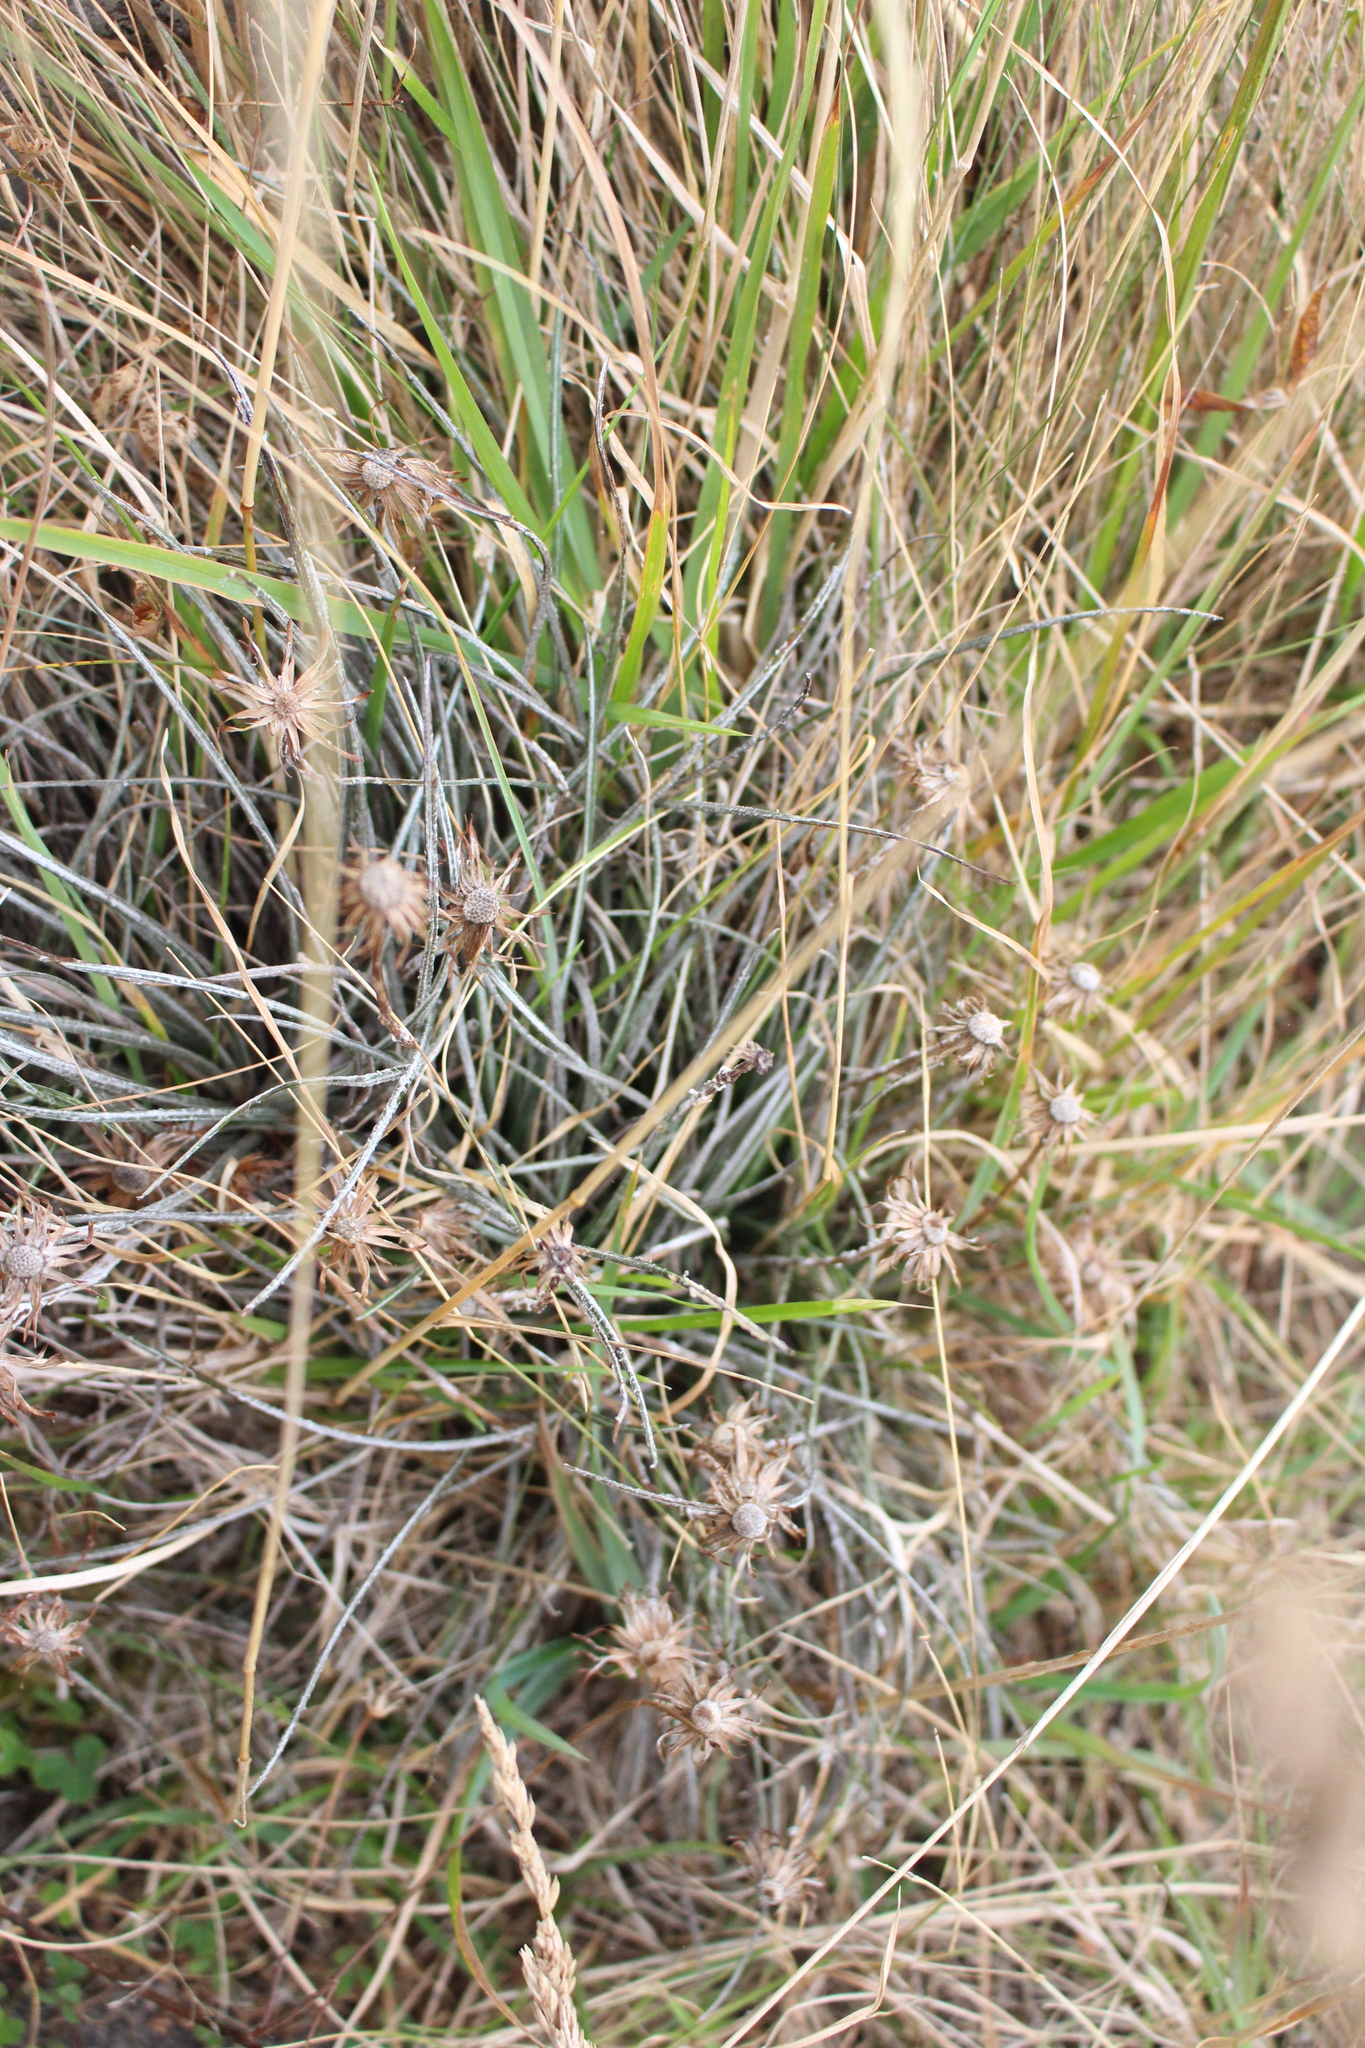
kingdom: Plantae
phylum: Tracheophyta
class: Magnoliopsida
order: Asterales
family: Asteraceae
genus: Celmisia
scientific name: Celmisia gracilenta
